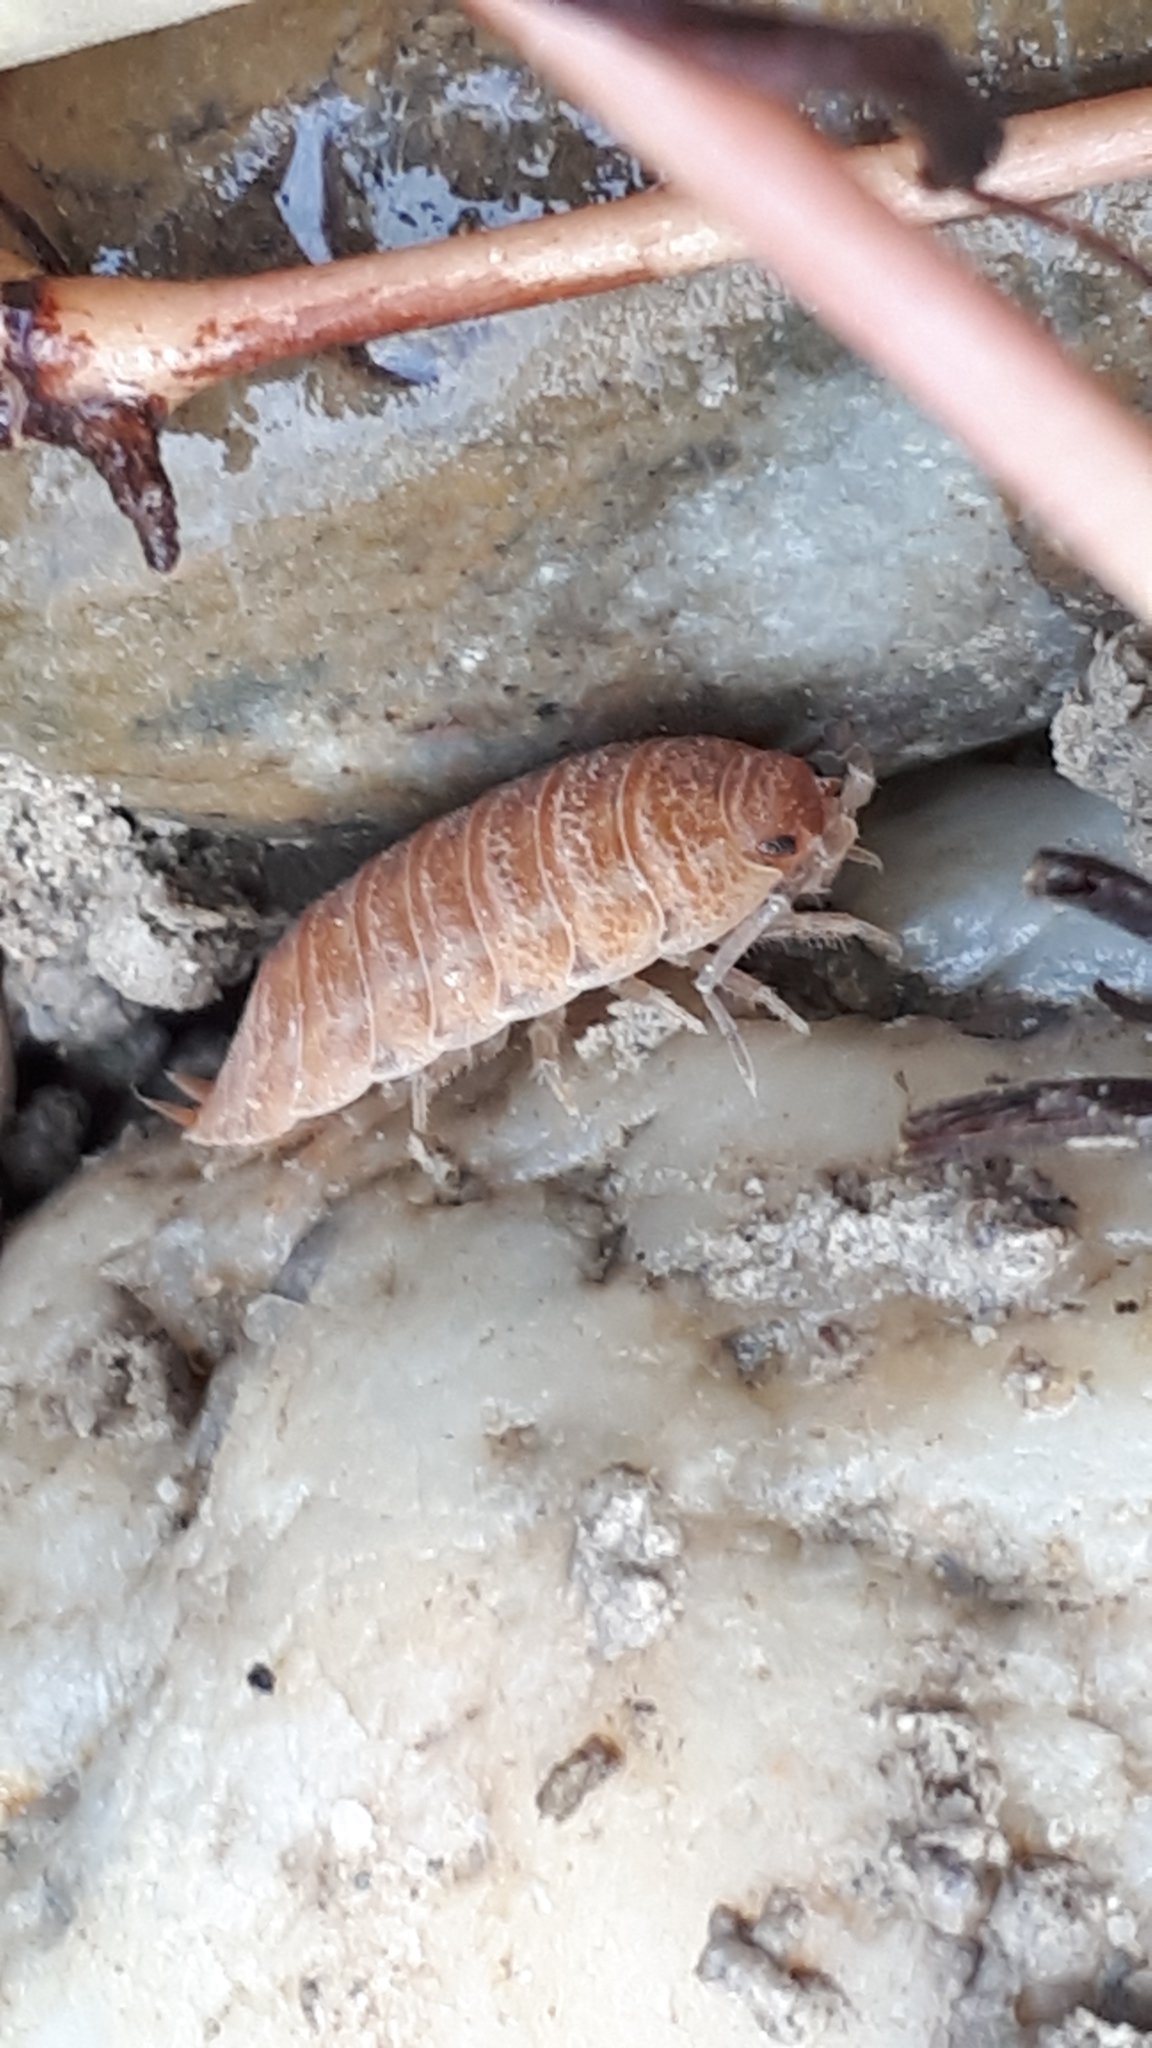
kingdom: Animalia
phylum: Arthropoda
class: Malacostraca
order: Isopoda
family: Trachelipodidae
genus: Trachelipus
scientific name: Trachelipus rathkii
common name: Isopod
